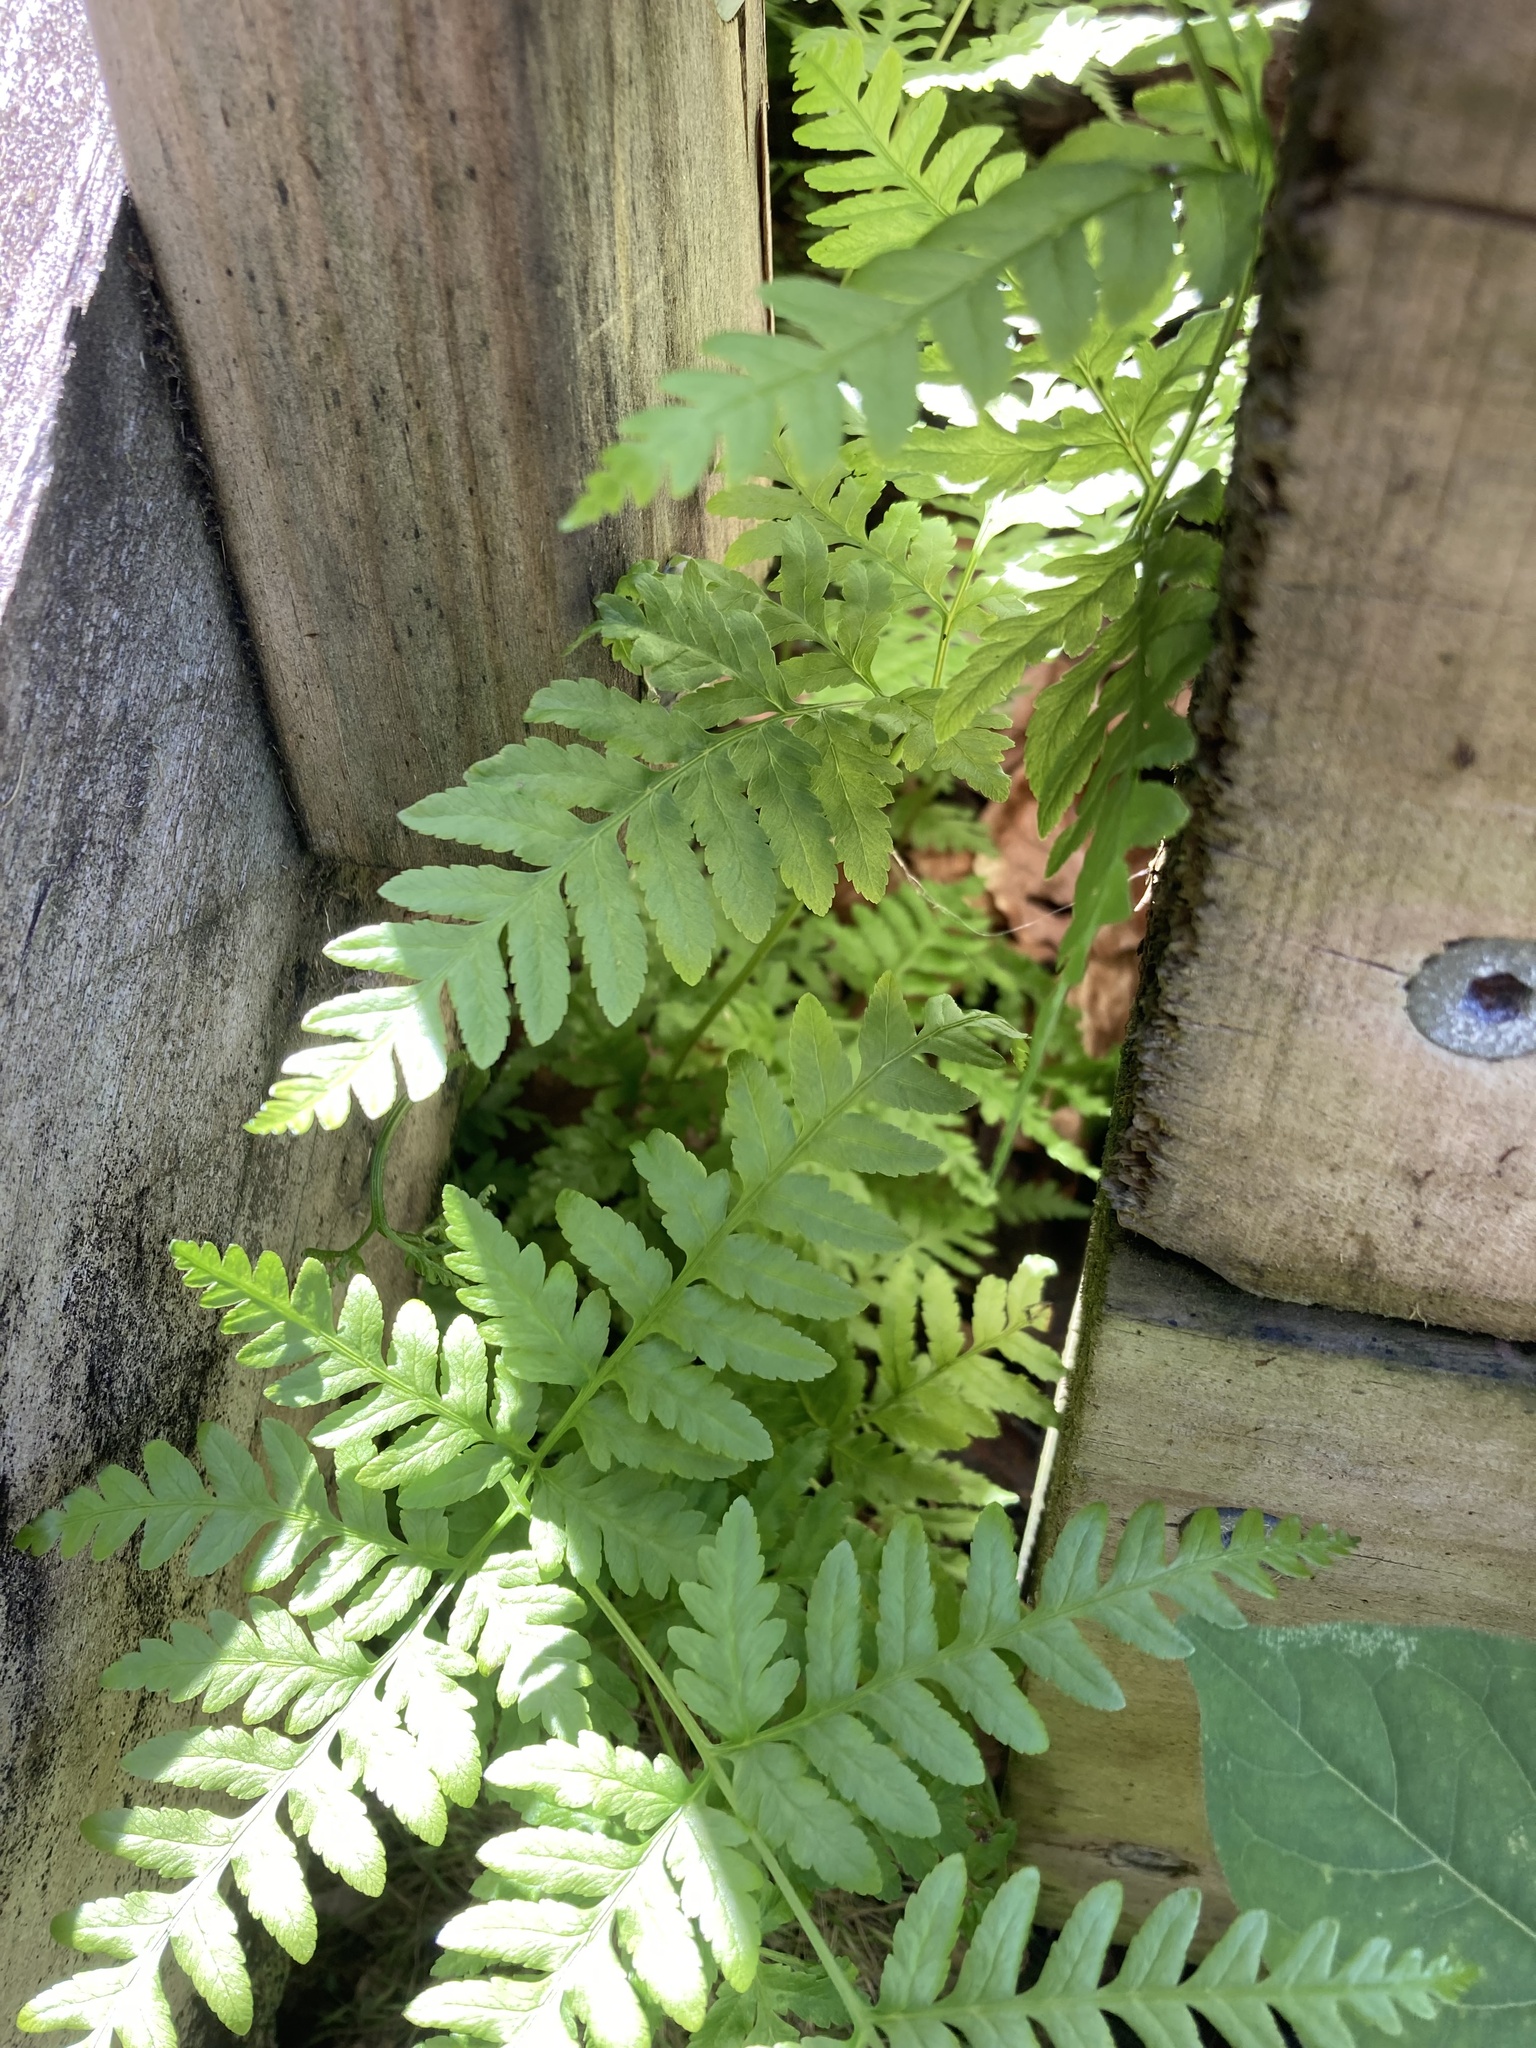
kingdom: Plantae
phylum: Tracheophyta
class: Polypodiopsida
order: Polypodiales
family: Pteridaceae
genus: Pteris
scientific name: Pteris tremula
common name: Australian brake
